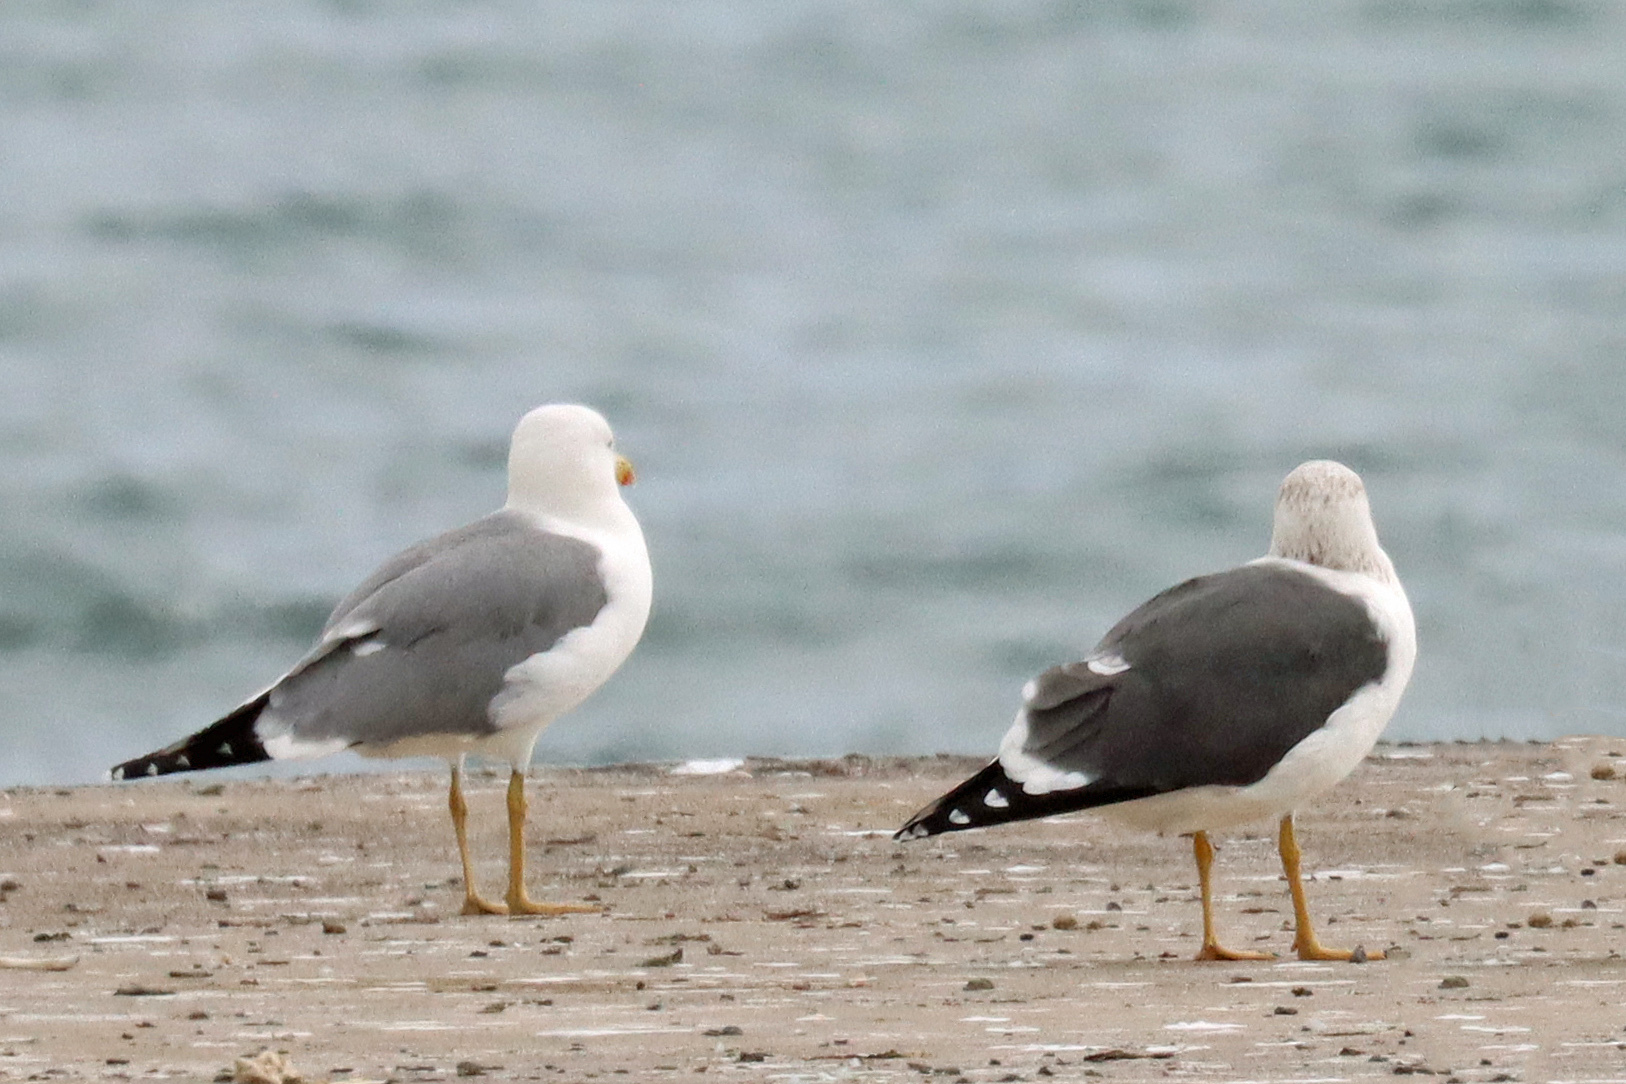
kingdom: Animalia
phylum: Chordata
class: Aves
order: Charadriiformes
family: Laridae
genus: Larus
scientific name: Larus michahellis
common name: Yellow-legged gull
